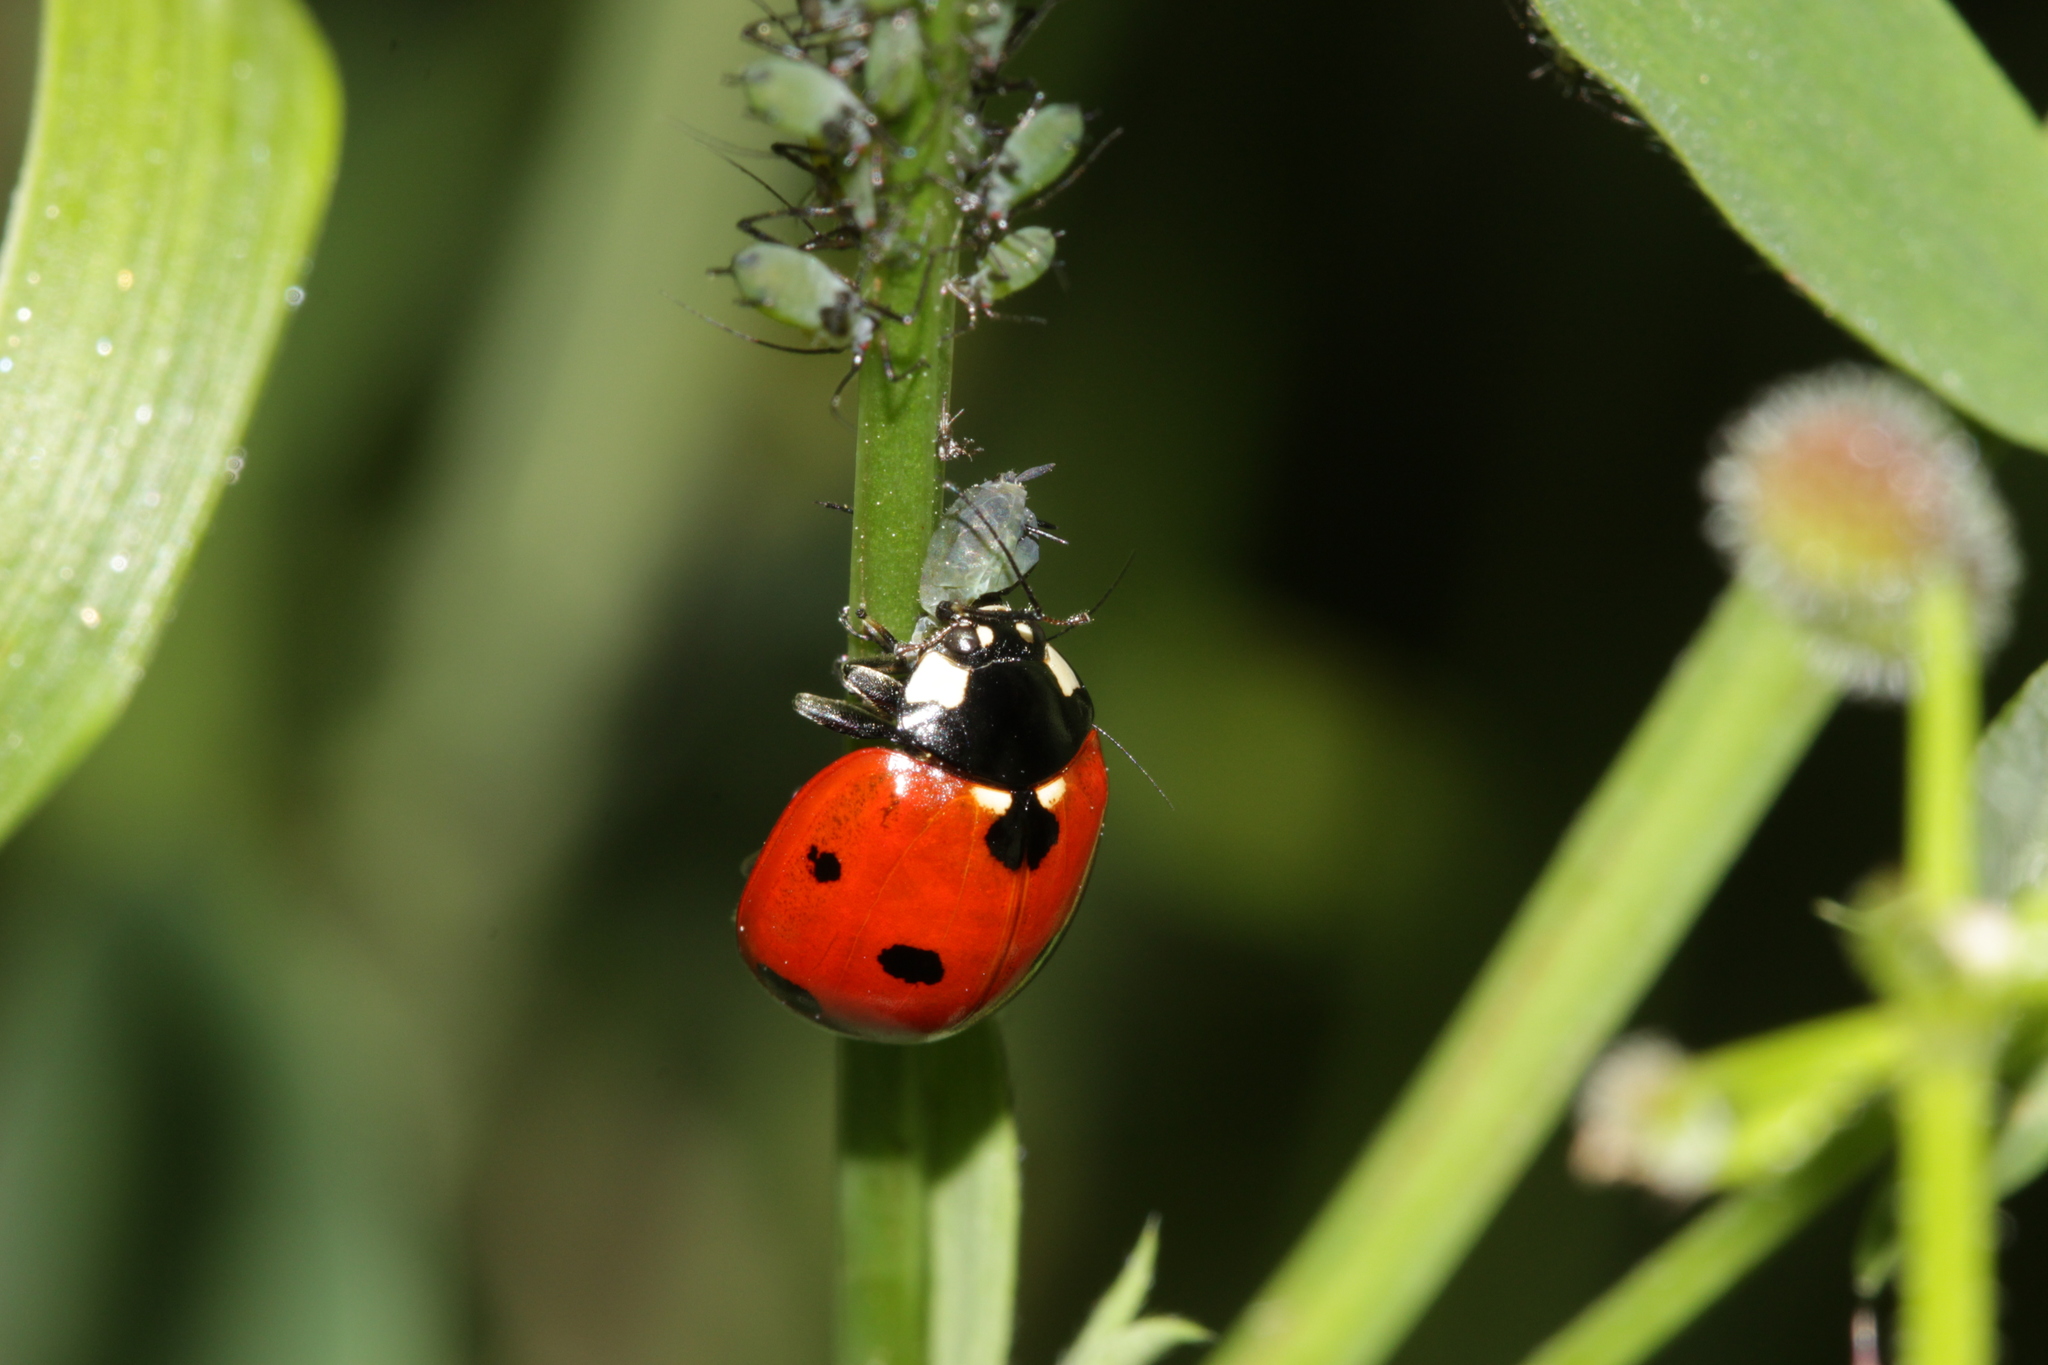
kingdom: Animalia
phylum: Arthropoda
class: Insecta
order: Coleoptera
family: Coccinellidae
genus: Coccinella
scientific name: Coccinella septempunctata
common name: Sevenspotted lady beetle
